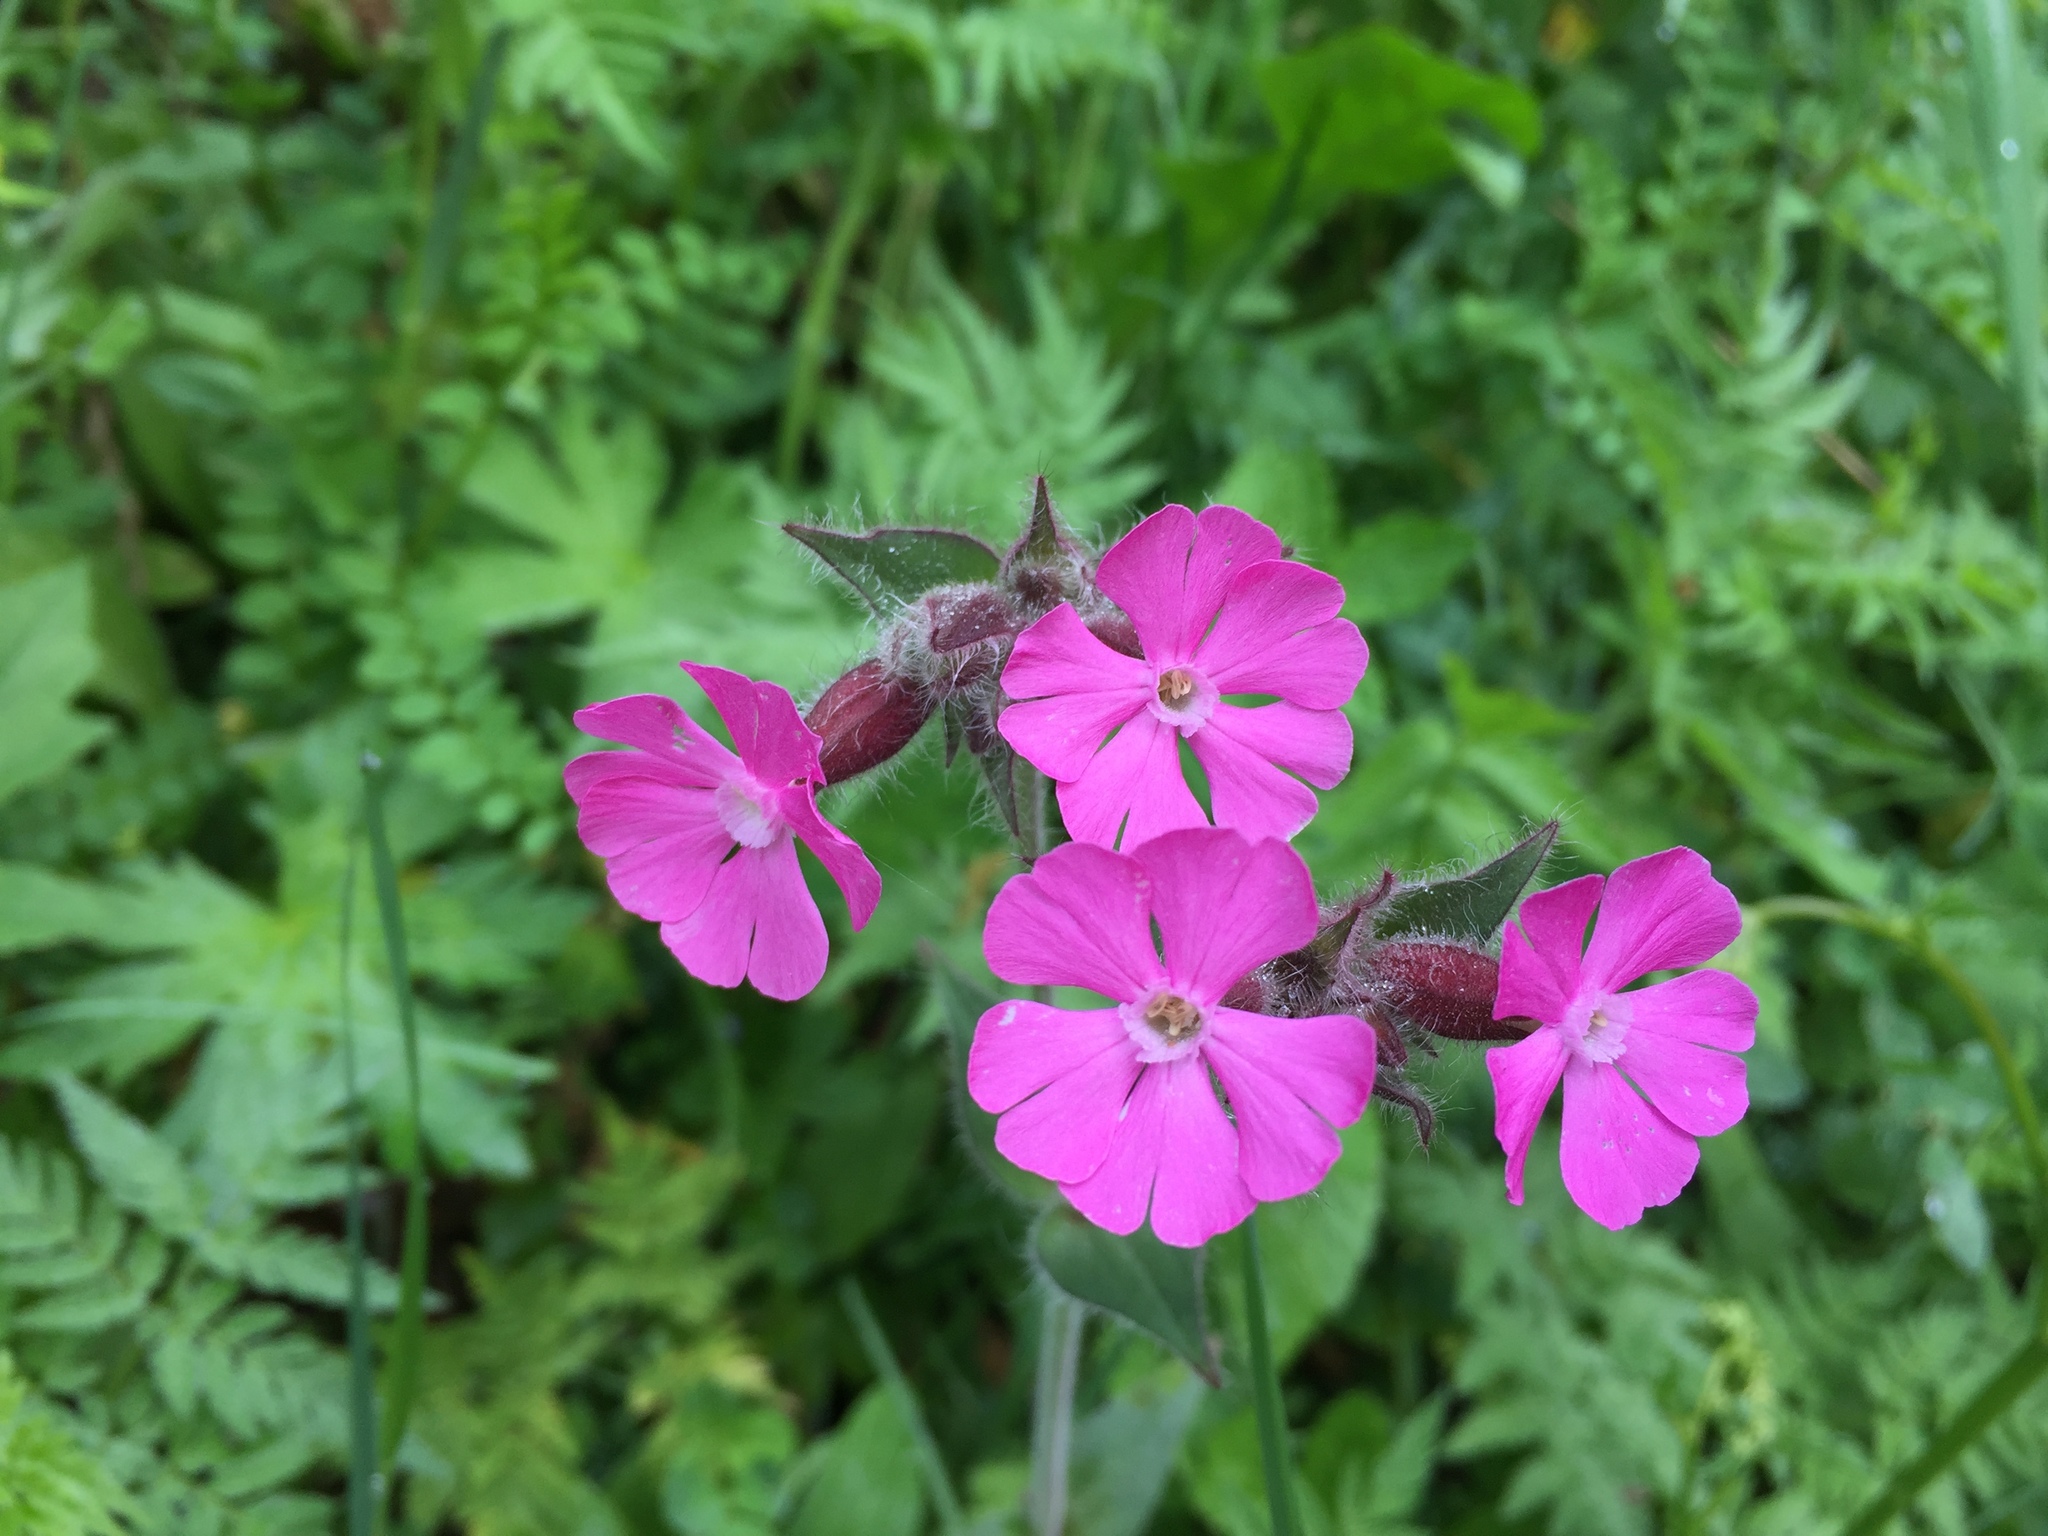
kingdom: Plantae
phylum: Tracheophyta
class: Magnoliopsida
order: Caryophyllales
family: Caryophyllaceae
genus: Silene
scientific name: Silene dioica
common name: Red campion
